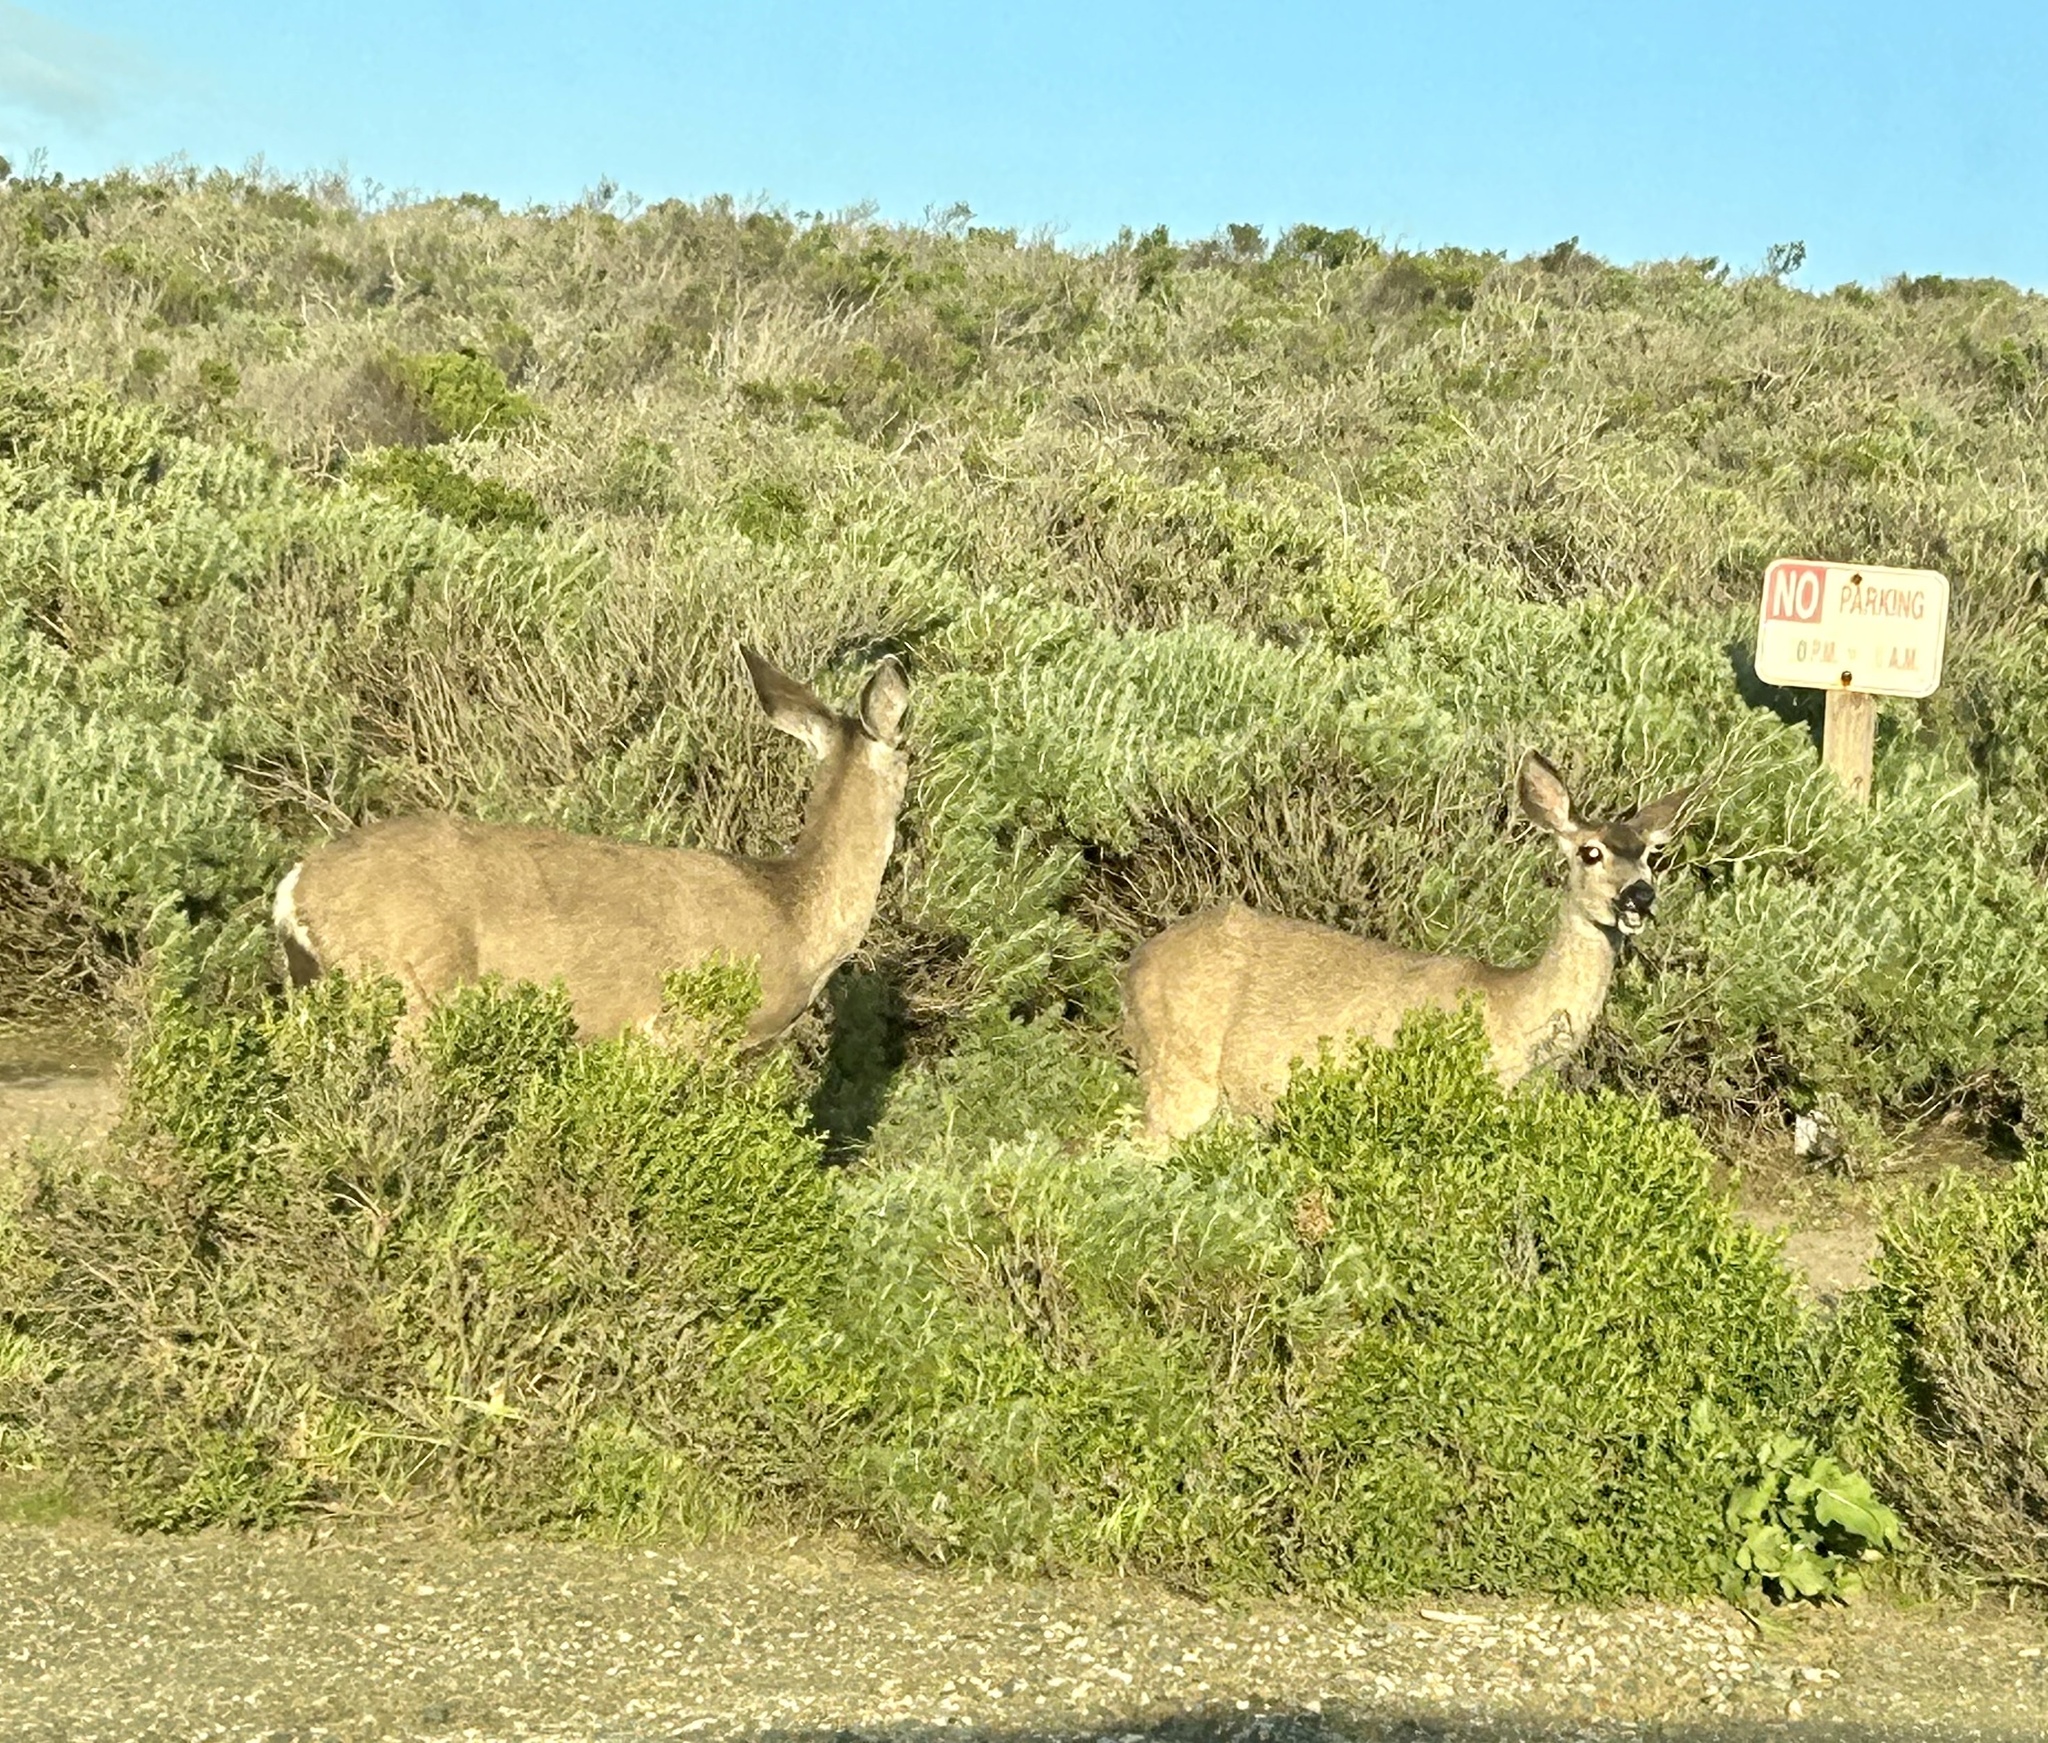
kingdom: Animalia
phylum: Chordata
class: Mammalia
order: Artiodactyla
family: Cervidae
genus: Odocoileus
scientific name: Odocoileus hemionus
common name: Mule deer
